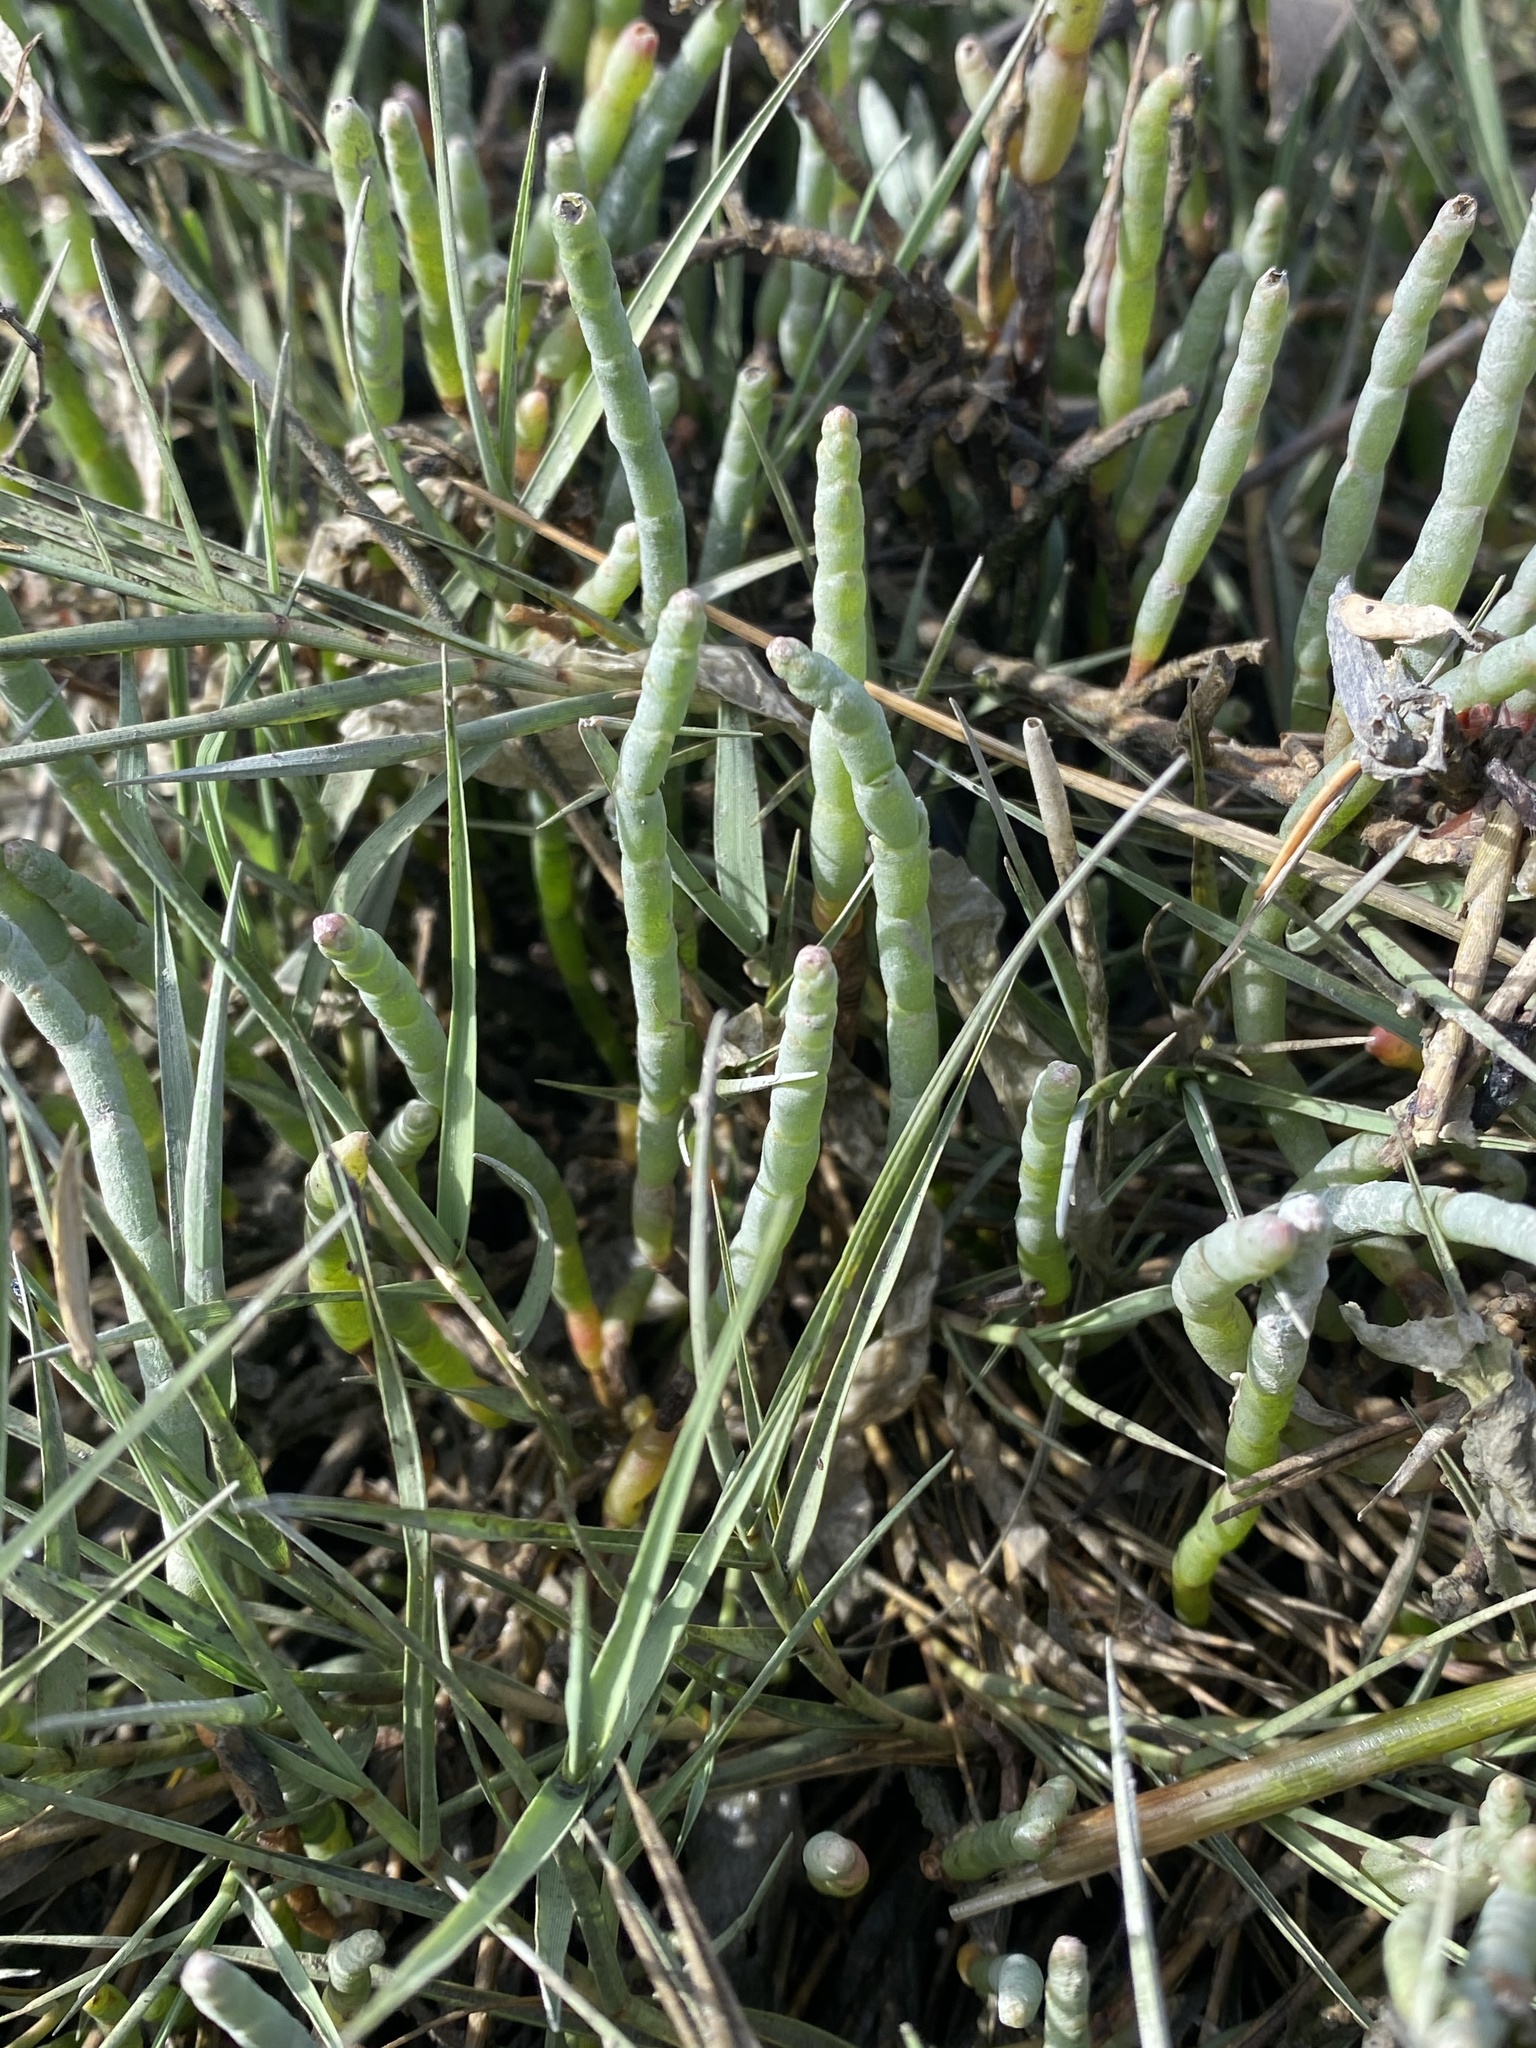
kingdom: Plantae
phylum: Tracheophyta
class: Magnoliopsida
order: Caryophyllales
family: Amaranthaceae
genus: Salicornia
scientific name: Salicornia pacifica
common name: Pacific glasswort
